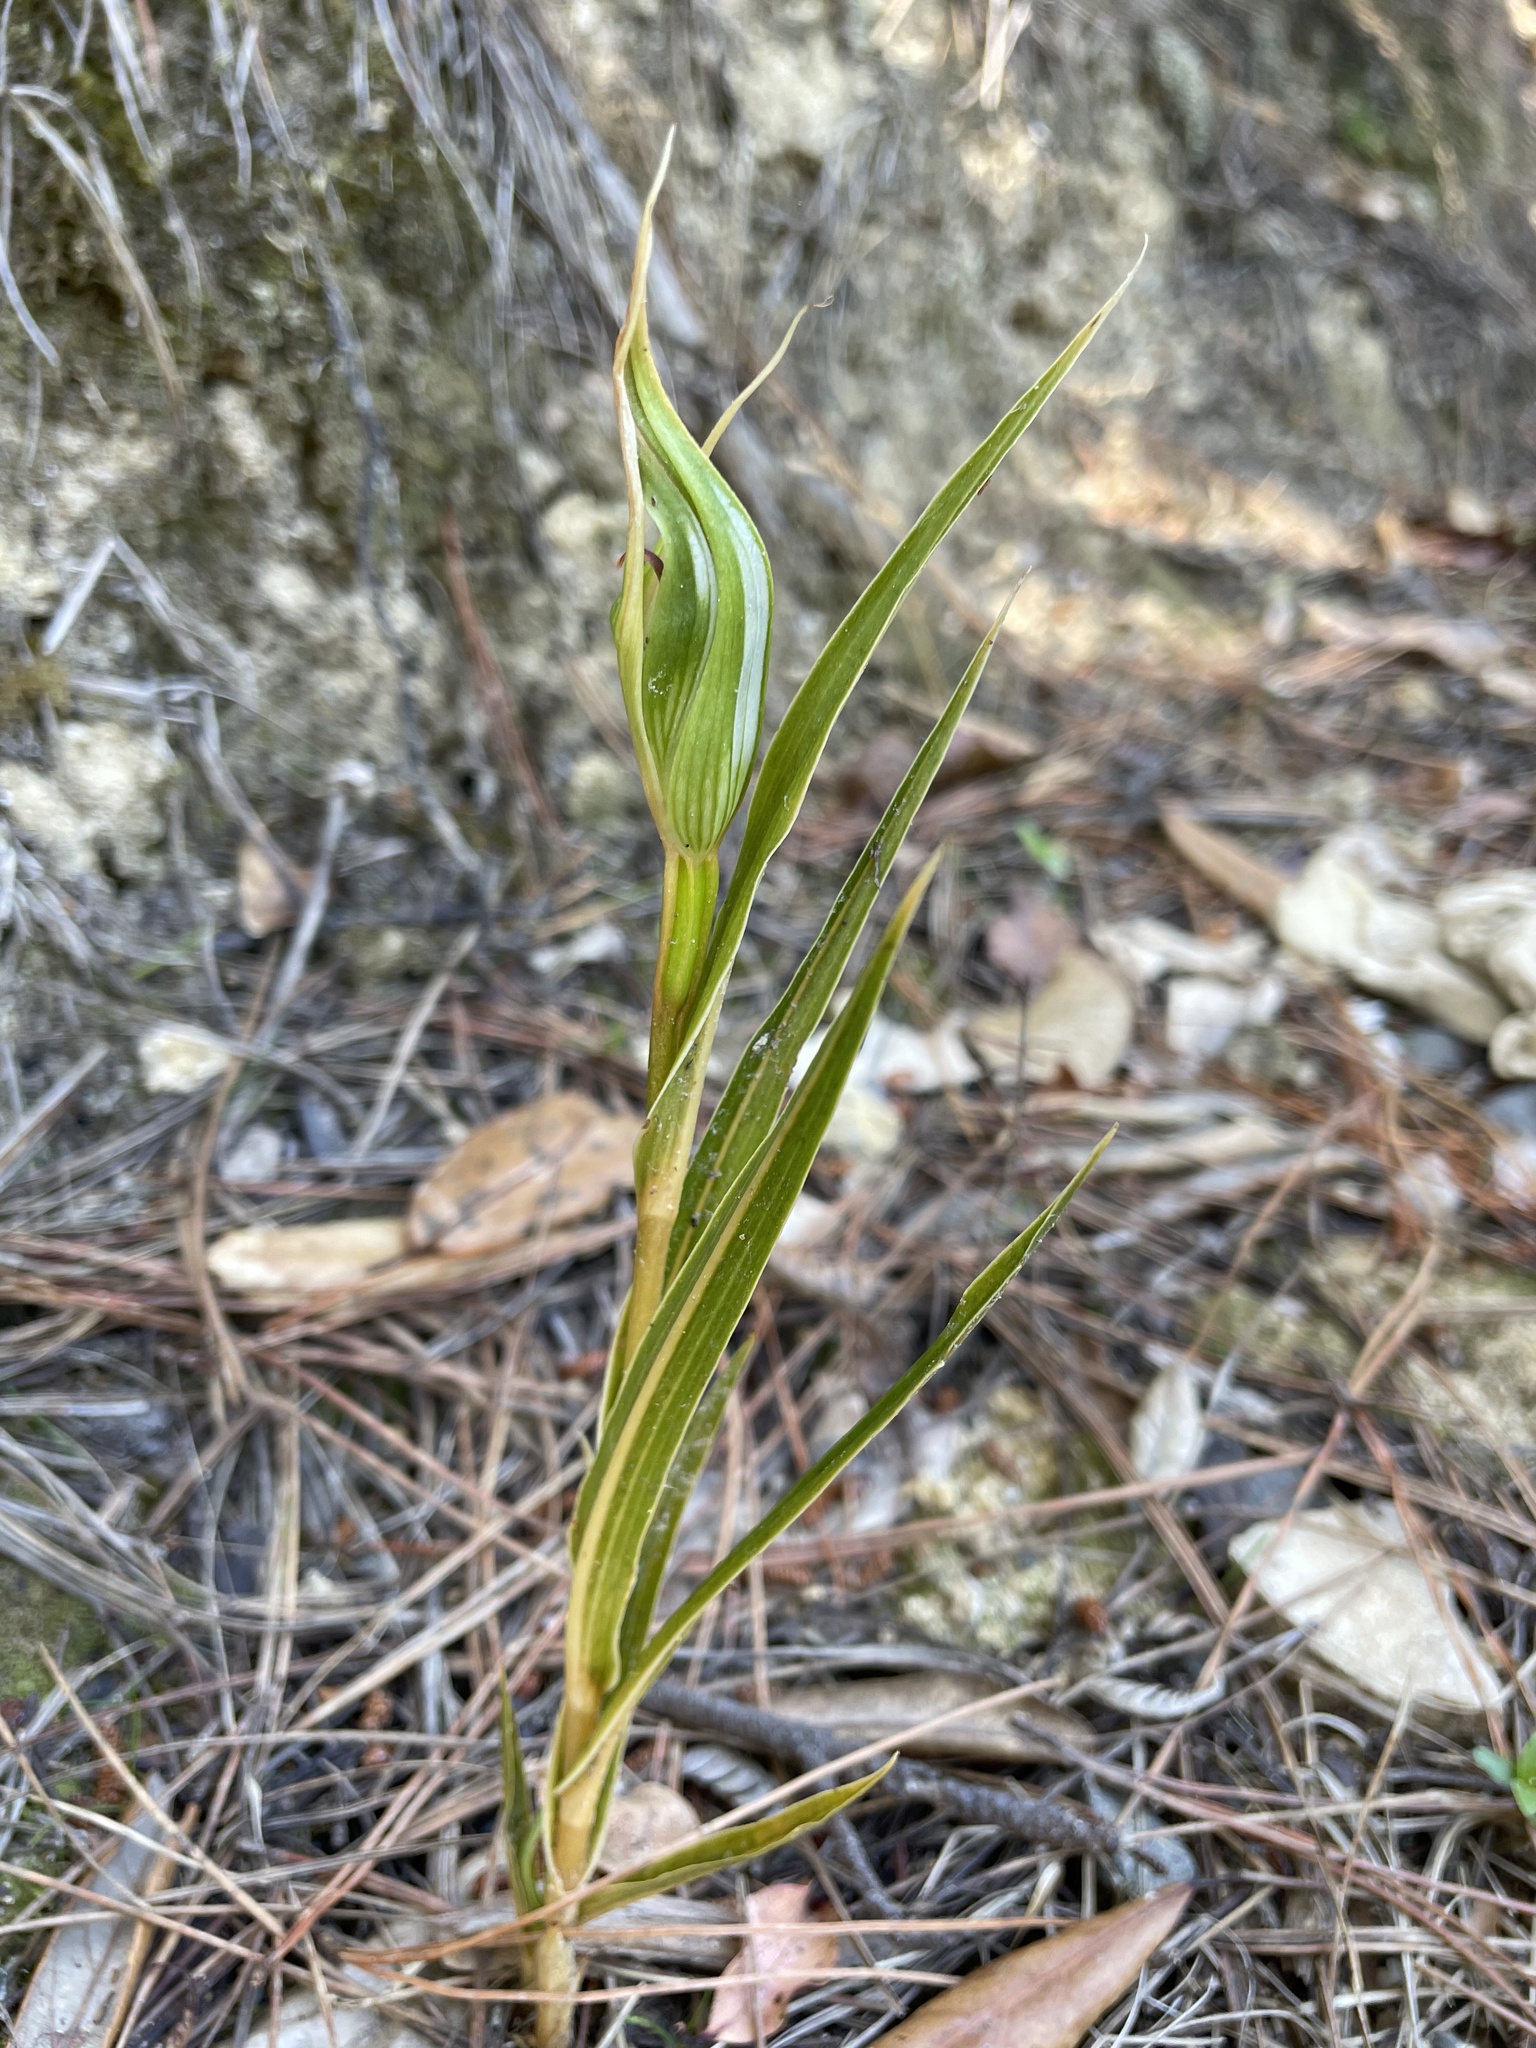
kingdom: Plantae
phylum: Tracheophyta
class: Liliopsida
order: Asparagales
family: Orchidaceae
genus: Pterostylis
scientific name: Pterostylis cardiostigma
